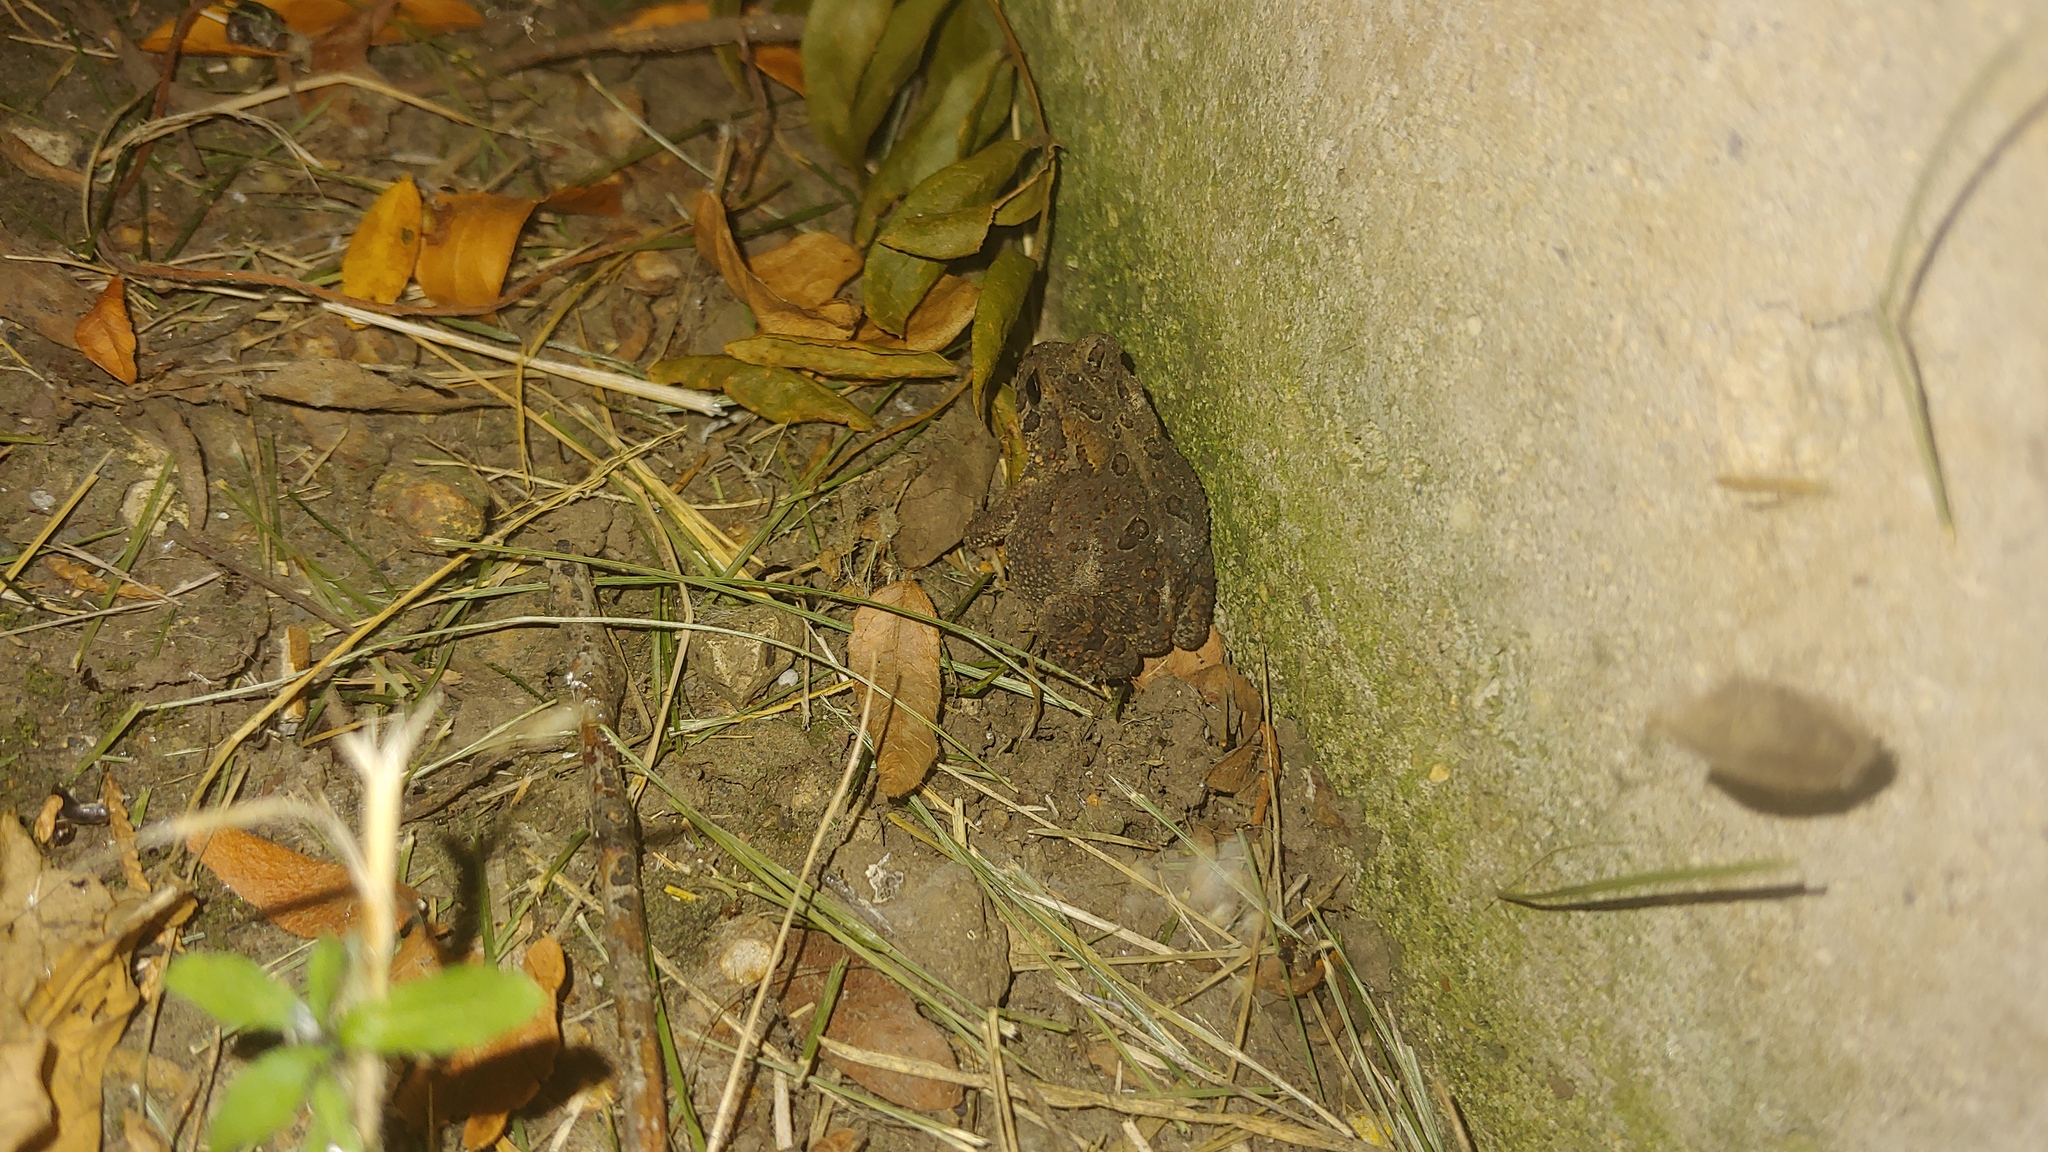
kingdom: Animalia
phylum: Chordata
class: Amphibia
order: Anura
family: Bufonidae
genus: Anaxyrus
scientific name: Anaxyrus americanus
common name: American toad
